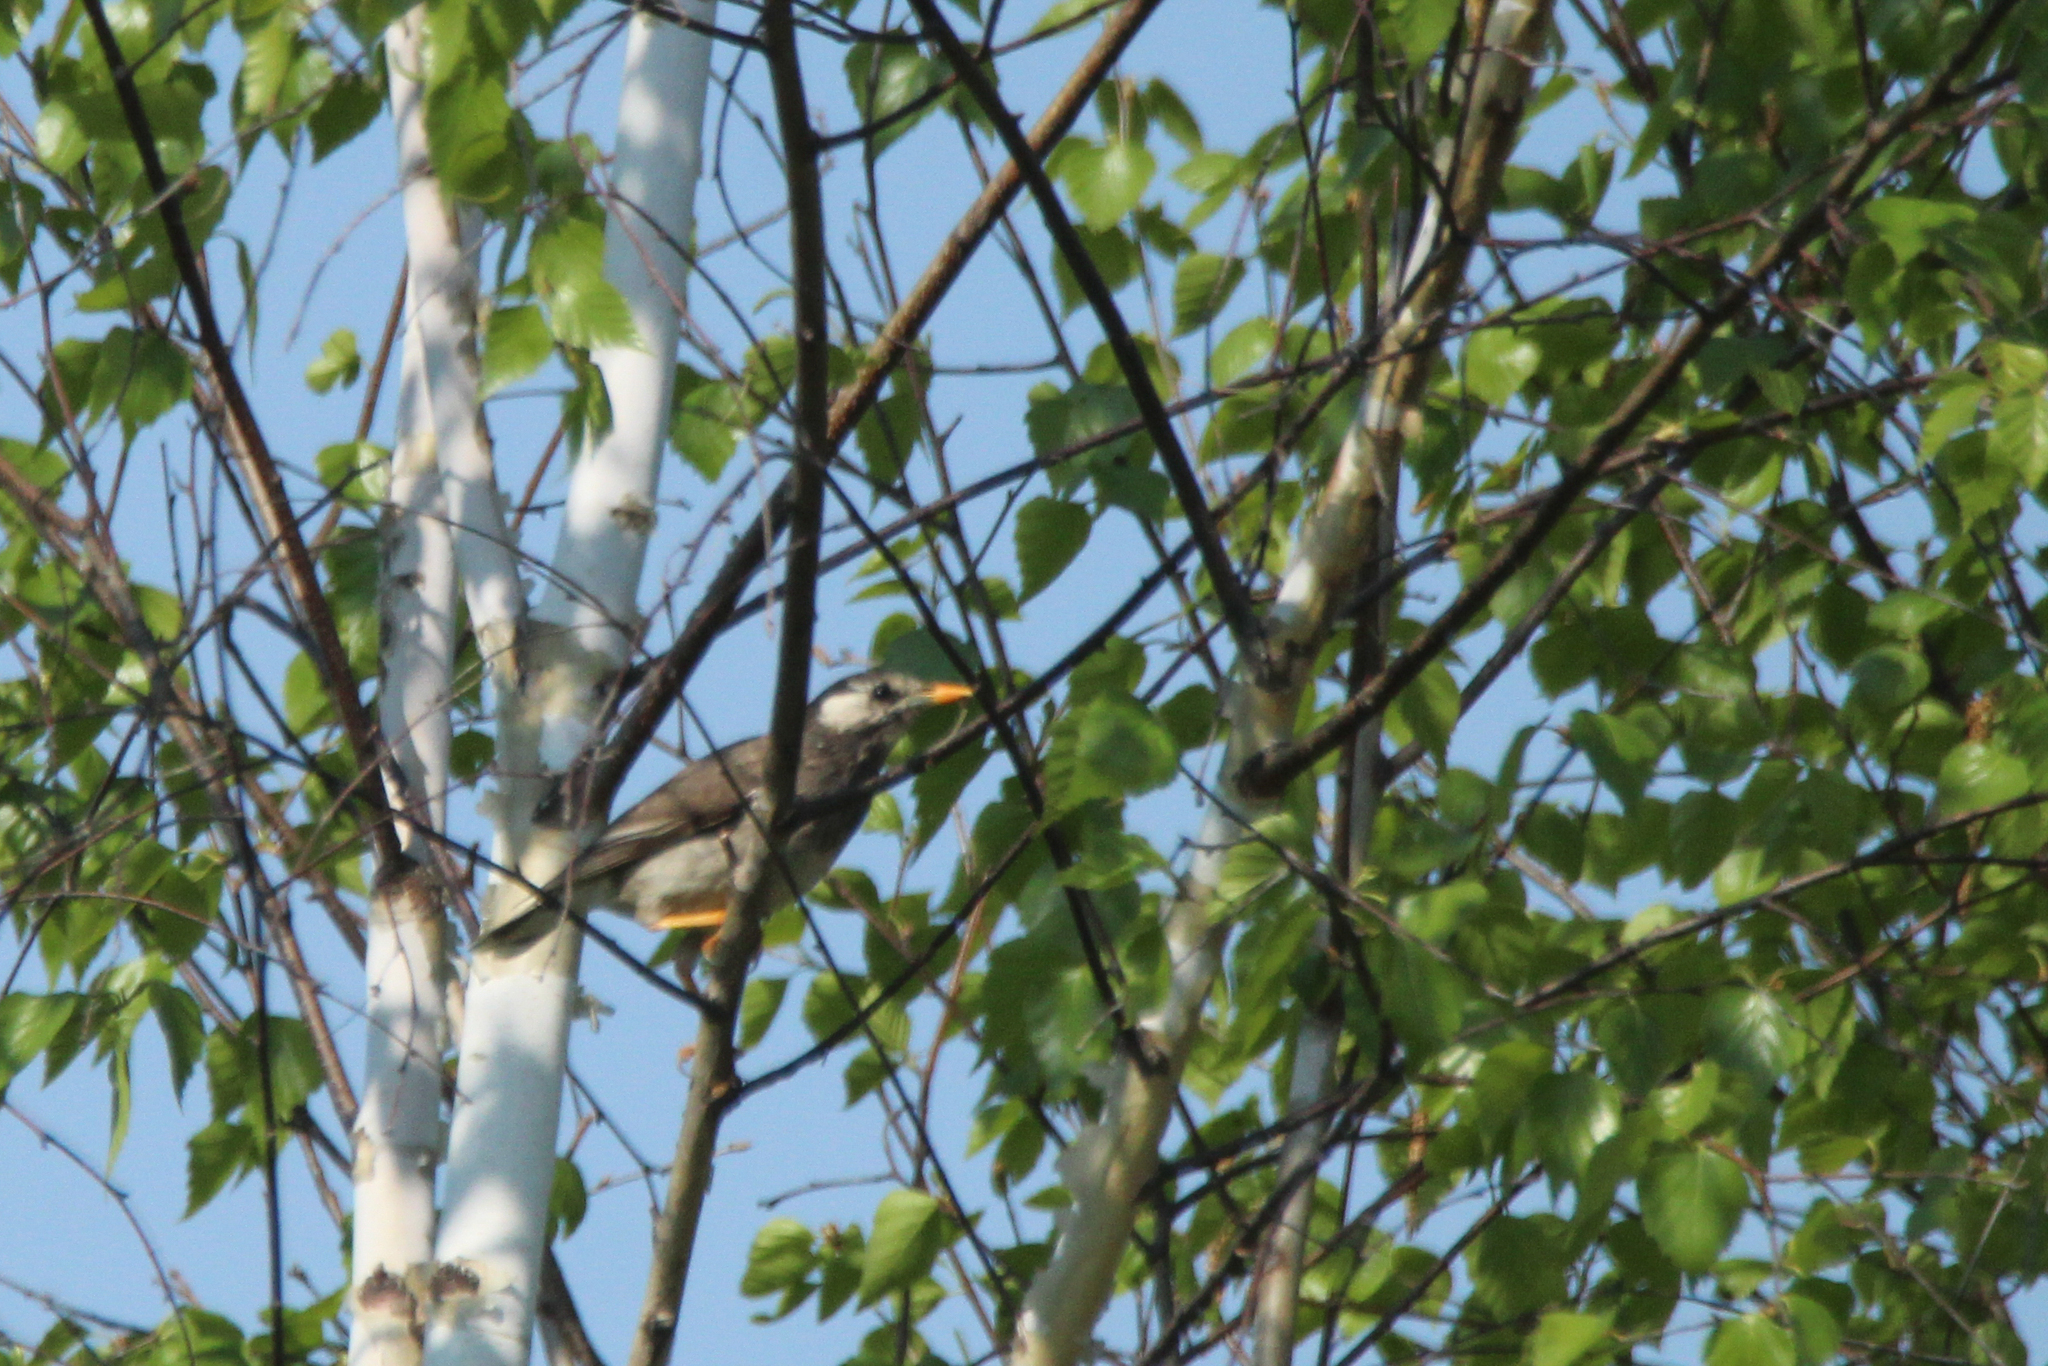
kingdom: Animalia
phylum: Chordata
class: Aves
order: Passeriformes
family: Sturnidae
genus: Spodiopsar
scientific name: Spodiopsar cineraceus
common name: White-cheeked starling
